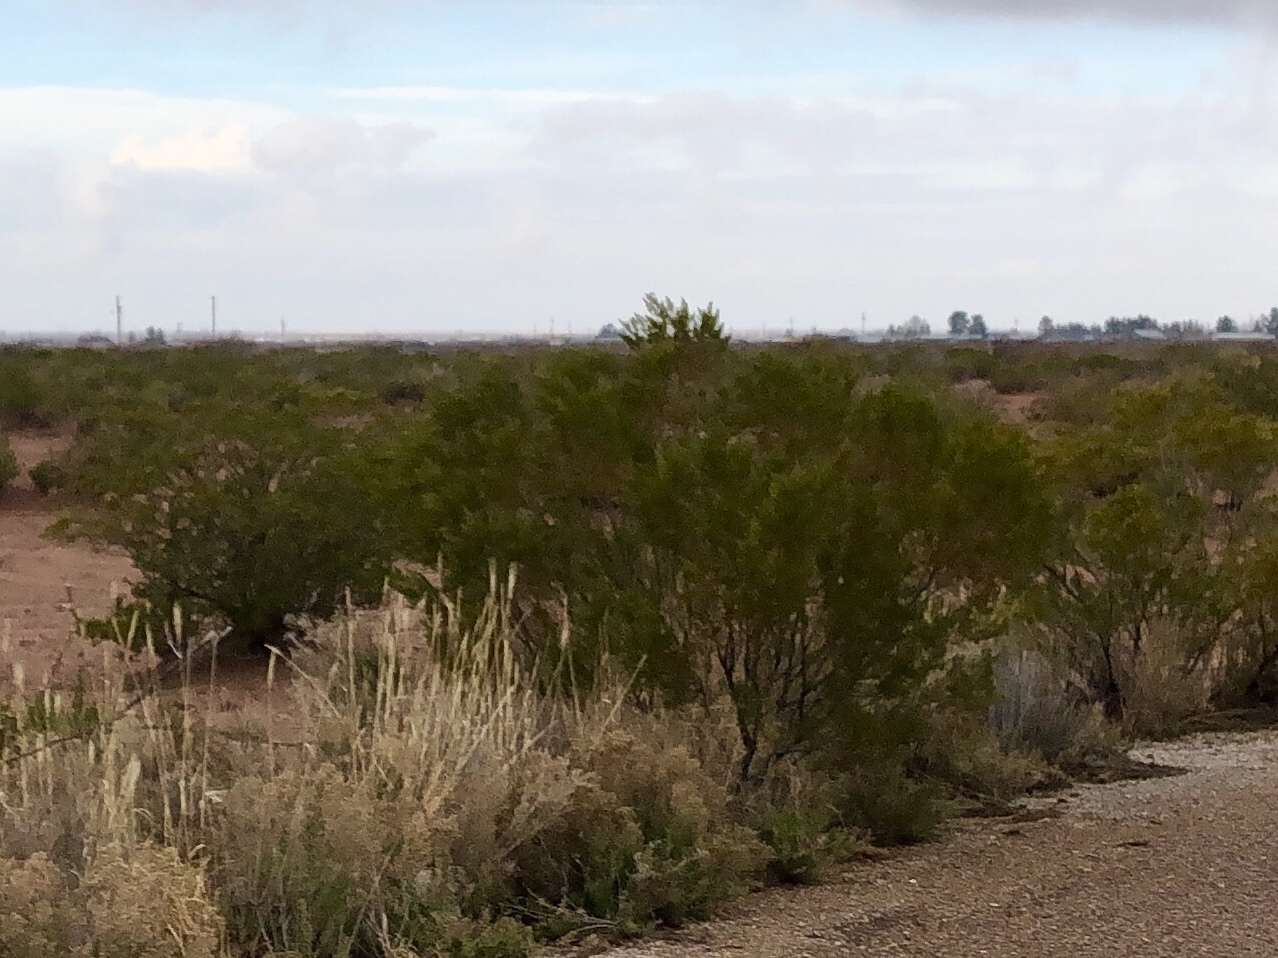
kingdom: Plantae
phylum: Tracheophyta
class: Magnoliopsida
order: Zygophyllales
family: Zygophyllaceae
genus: Larrea
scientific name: Larrea tridentata
